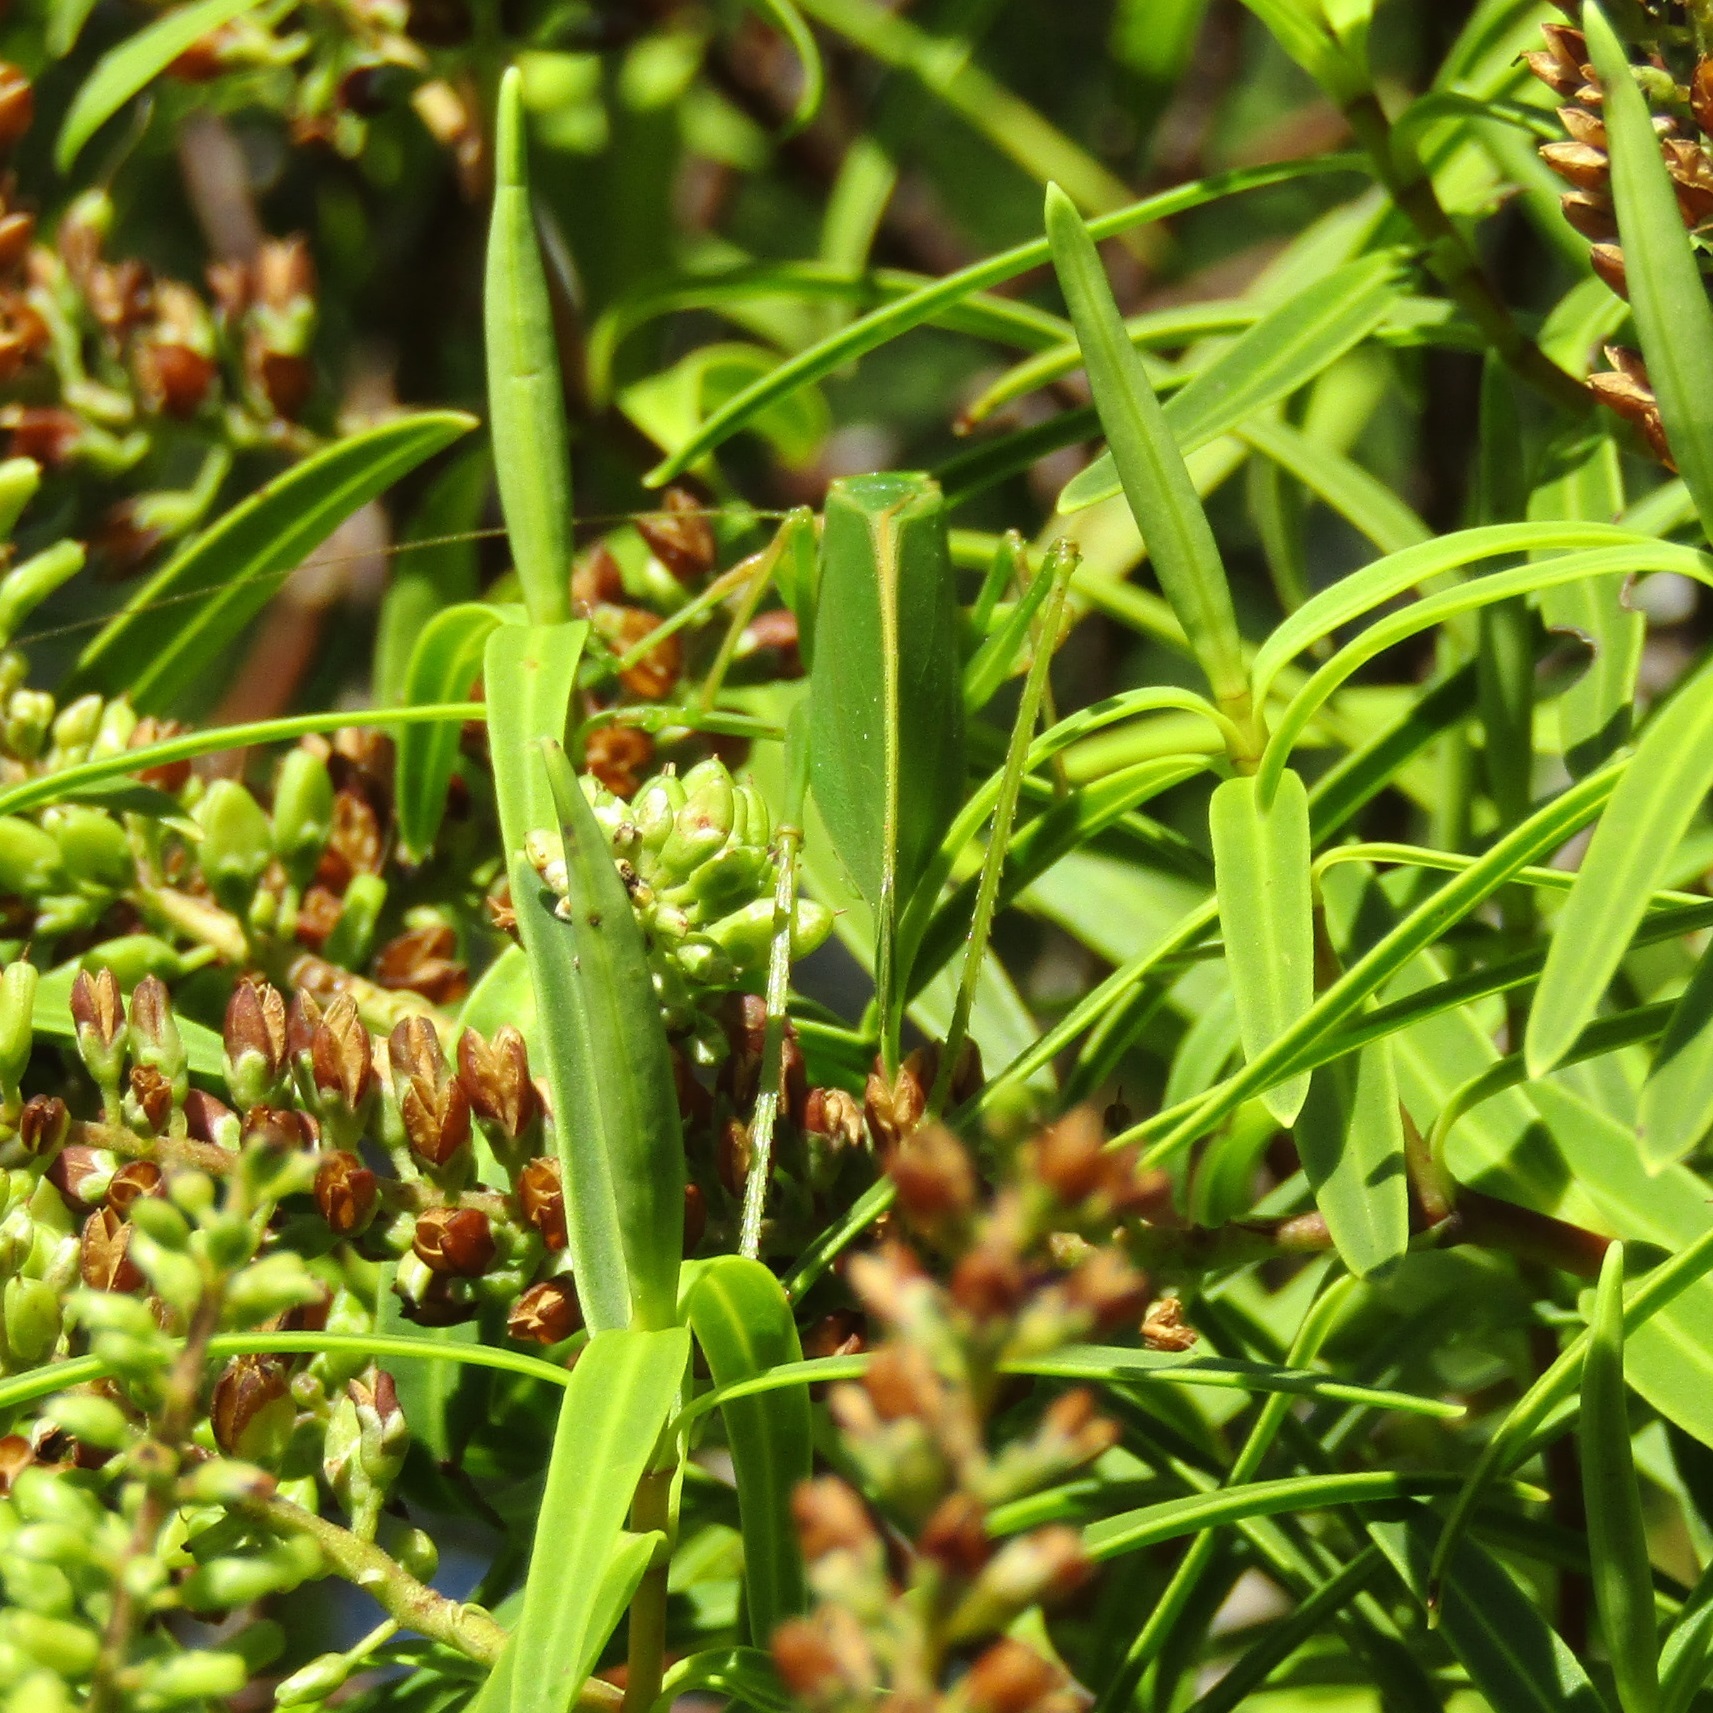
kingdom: Animalia
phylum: Arthropoda
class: Insecta
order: Orthoptera
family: Tettigoniidae
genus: Caedicia
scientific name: Caedicia simplex
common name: Common garden katydid
